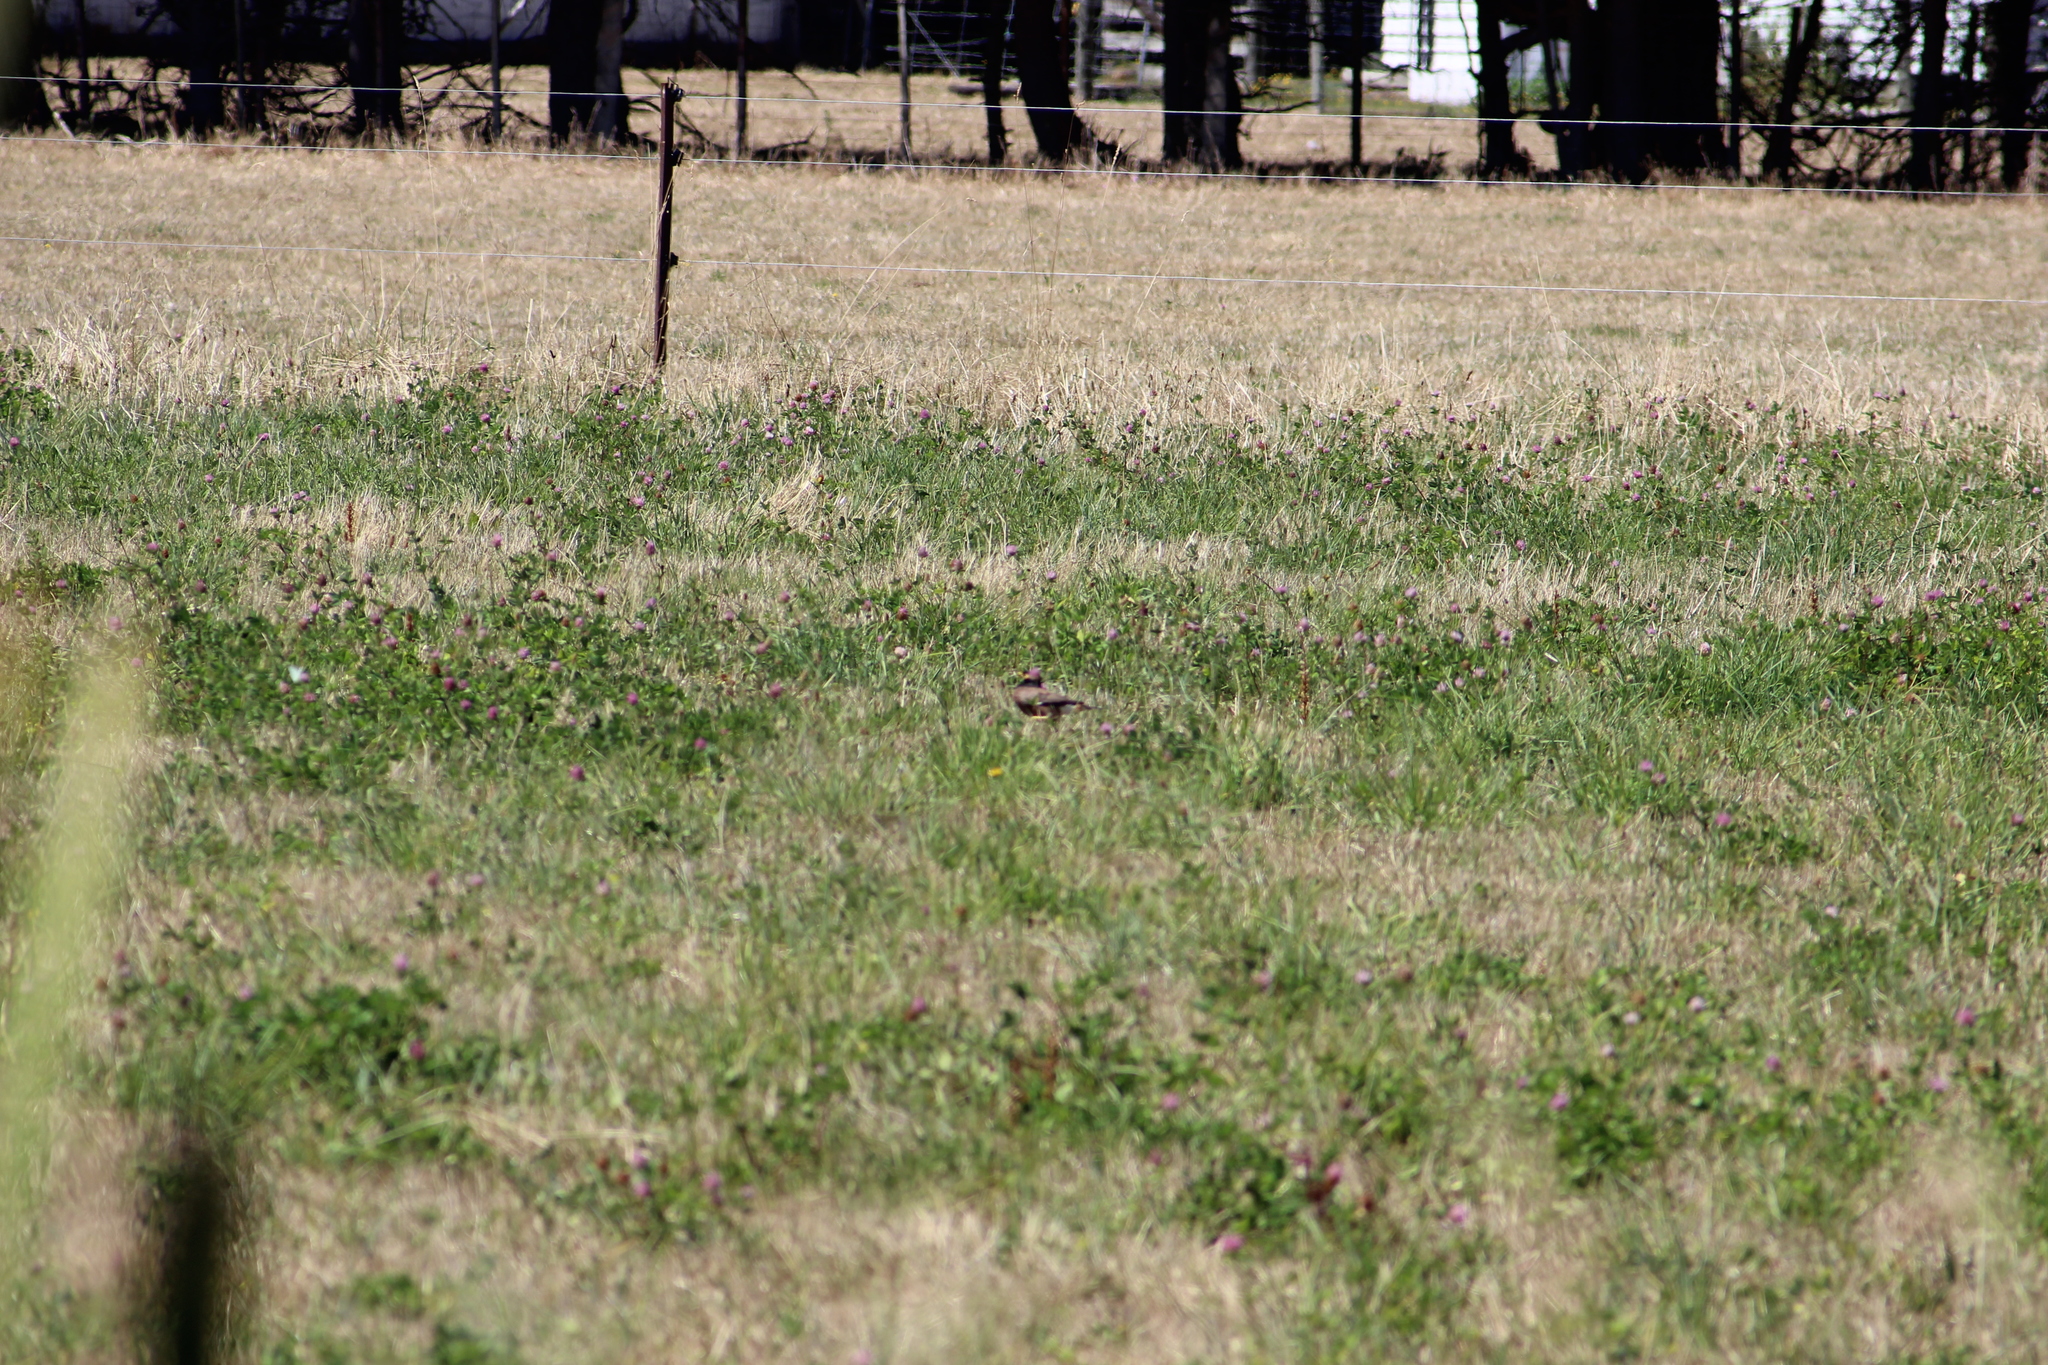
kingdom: Animalia
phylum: Chordata
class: Aves
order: Passeriformes
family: Sturnidae
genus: Acridotheres
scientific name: Acridotheres tristis
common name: Common myna
